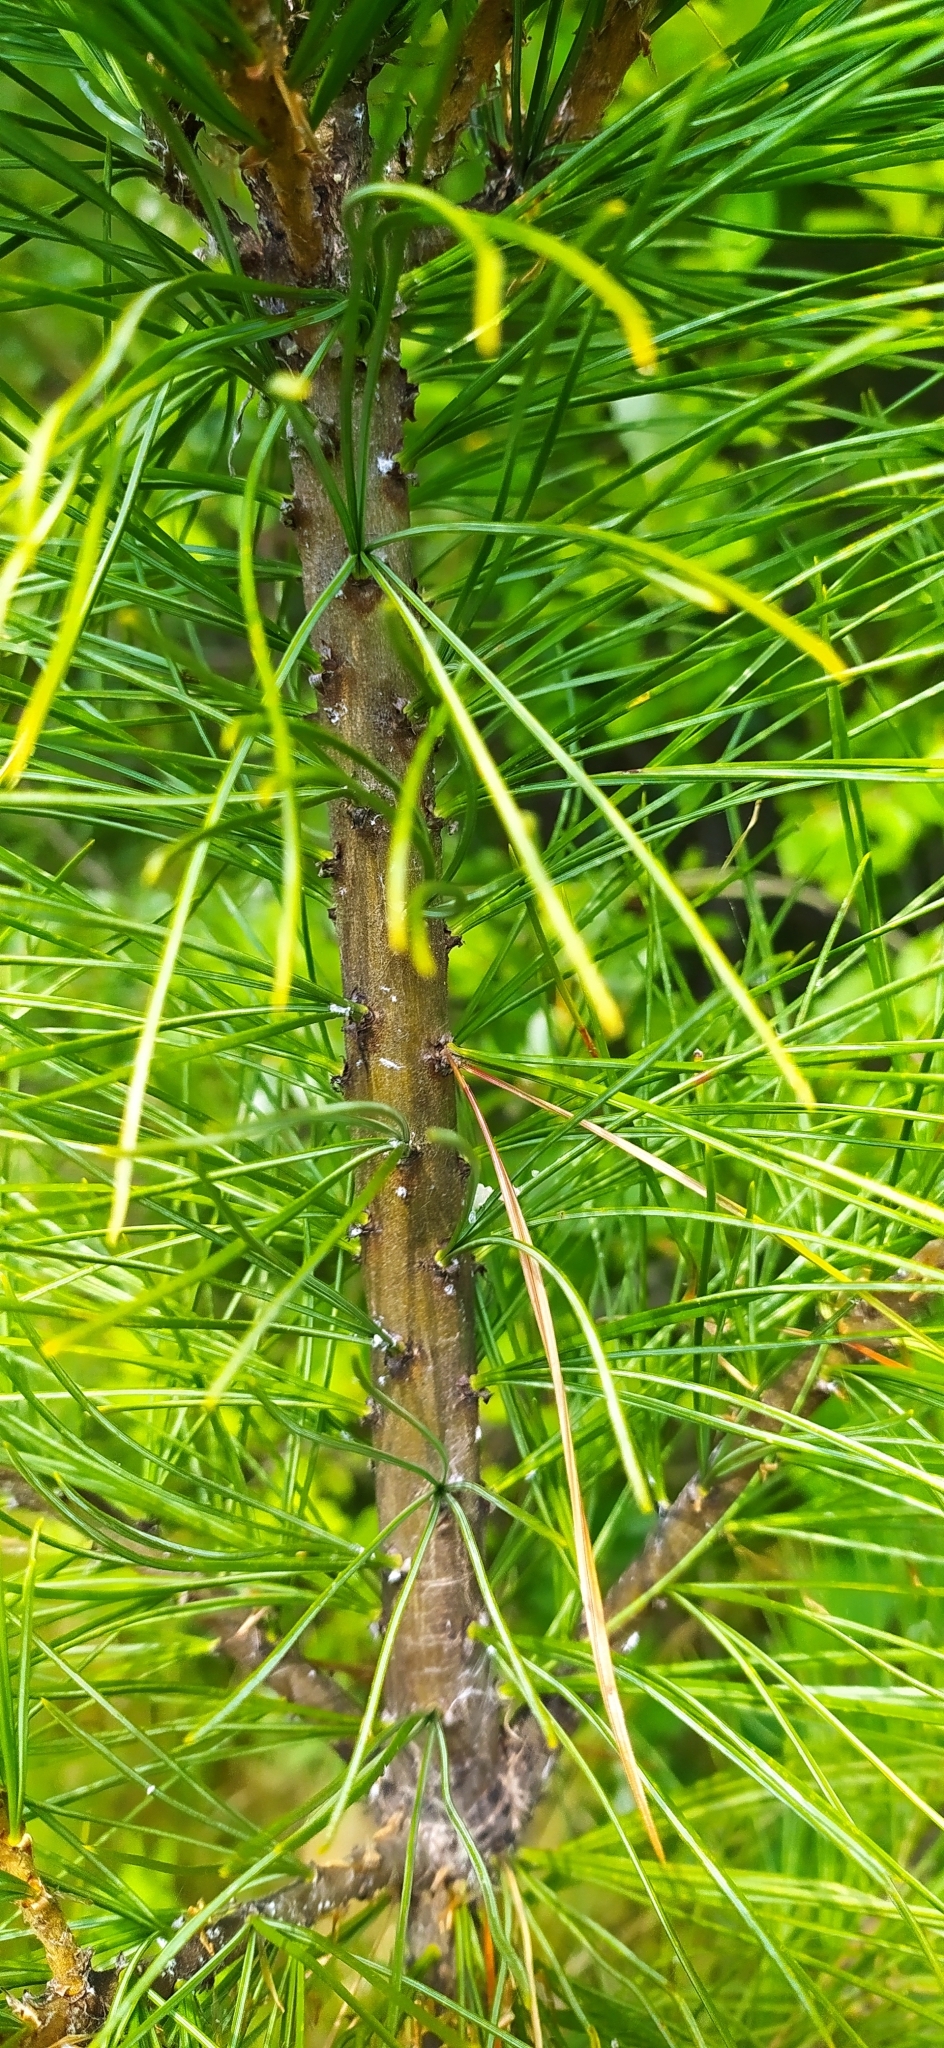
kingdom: Plantae
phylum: Tracheophyta
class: Pinopsida
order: Pinales
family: Pinaceae
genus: Pinus
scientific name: Pinus sibirica
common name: Siberian pine
